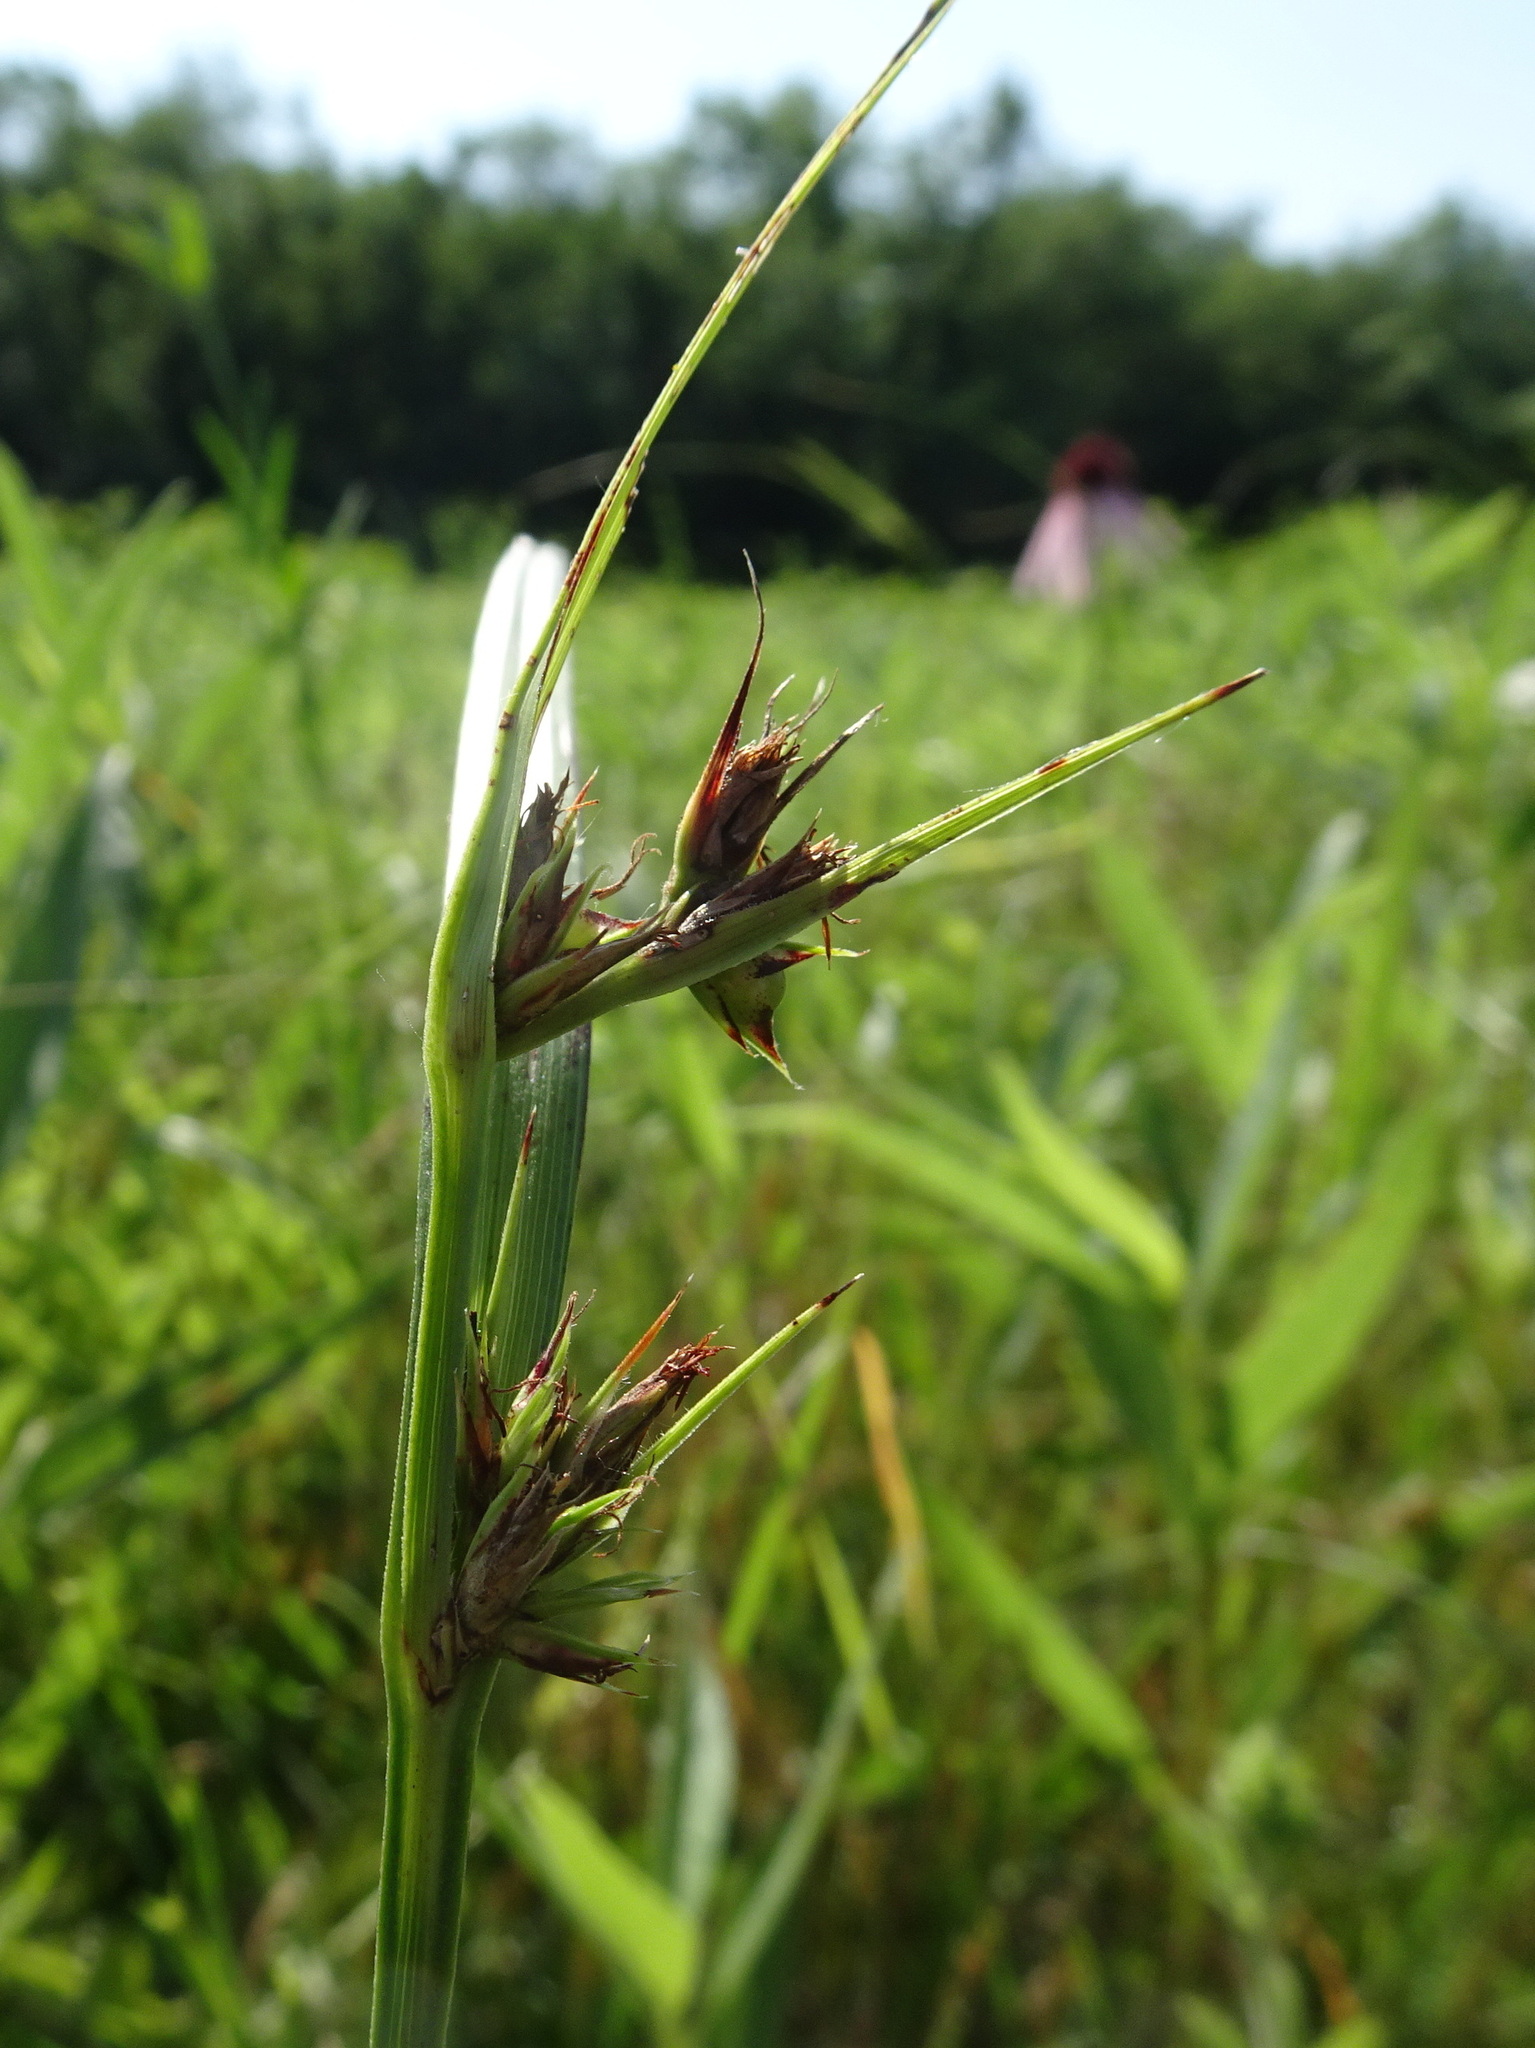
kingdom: Plantae
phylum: Tracheophyta
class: Liliopsida
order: Poales
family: Cyperaceae
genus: Scleria
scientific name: Scleria triglomerata
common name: Whip nutrush
